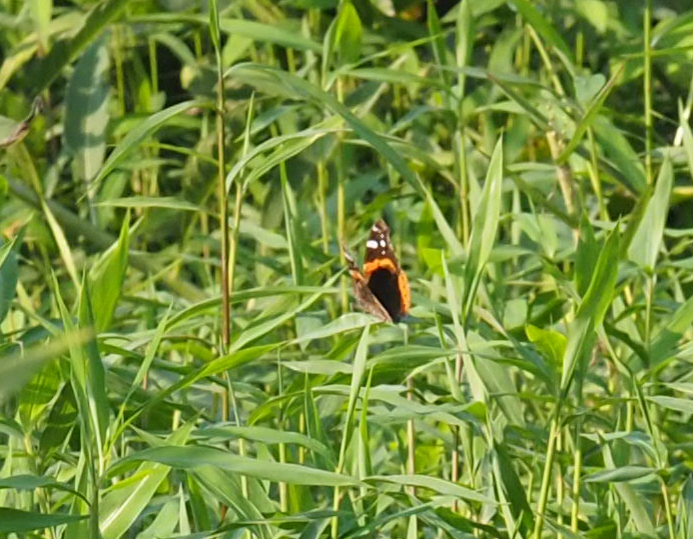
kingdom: Animalia
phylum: Arthropoda
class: Insecta
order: Lepidoptera
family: Nymphalidae
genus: Vanessa
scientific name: Vanessa atalanta
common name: Red admiral
